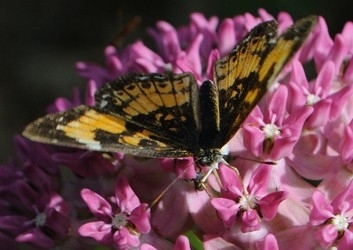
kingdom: Animalia
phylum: Arthropoda
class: Insecta
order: Lepidoptera
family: Nymphalidae
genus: Chlosyne
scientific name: Chlosyne nycteis
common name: Silvery checkerspot
